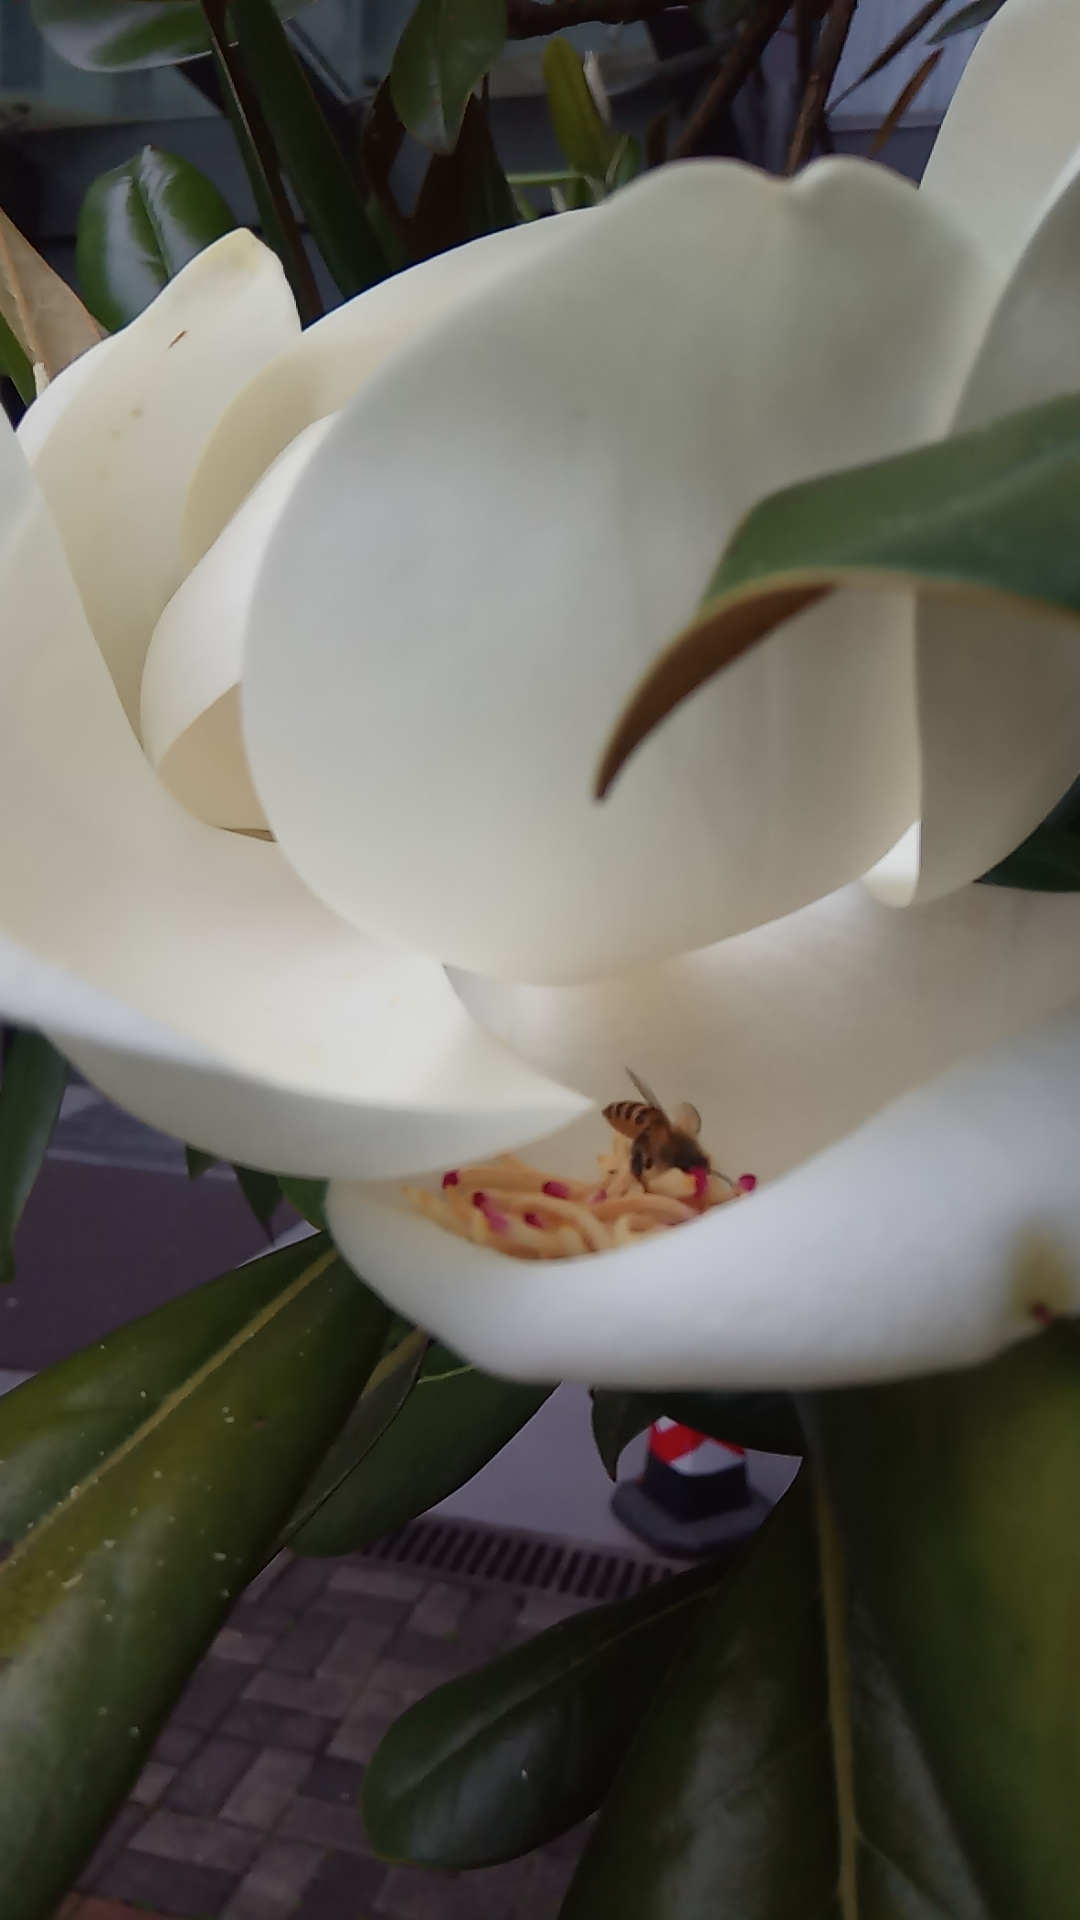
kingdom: Animalia
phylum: Arthropoda
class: Insecta
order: Hymenoptera
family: Apidae
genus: Apis
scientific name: Apis cerana
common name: Honey bee
